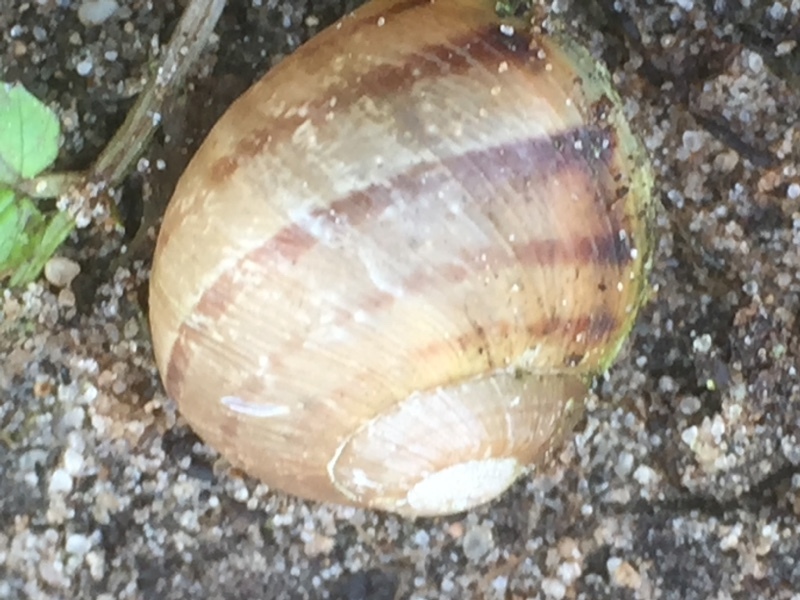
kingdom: Animalia
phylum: Mollusca
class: Gastropoda
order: Stylommatophora
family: Helicidae
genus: Cornu
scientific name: Cornu aspersum
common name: Brown garden snail
